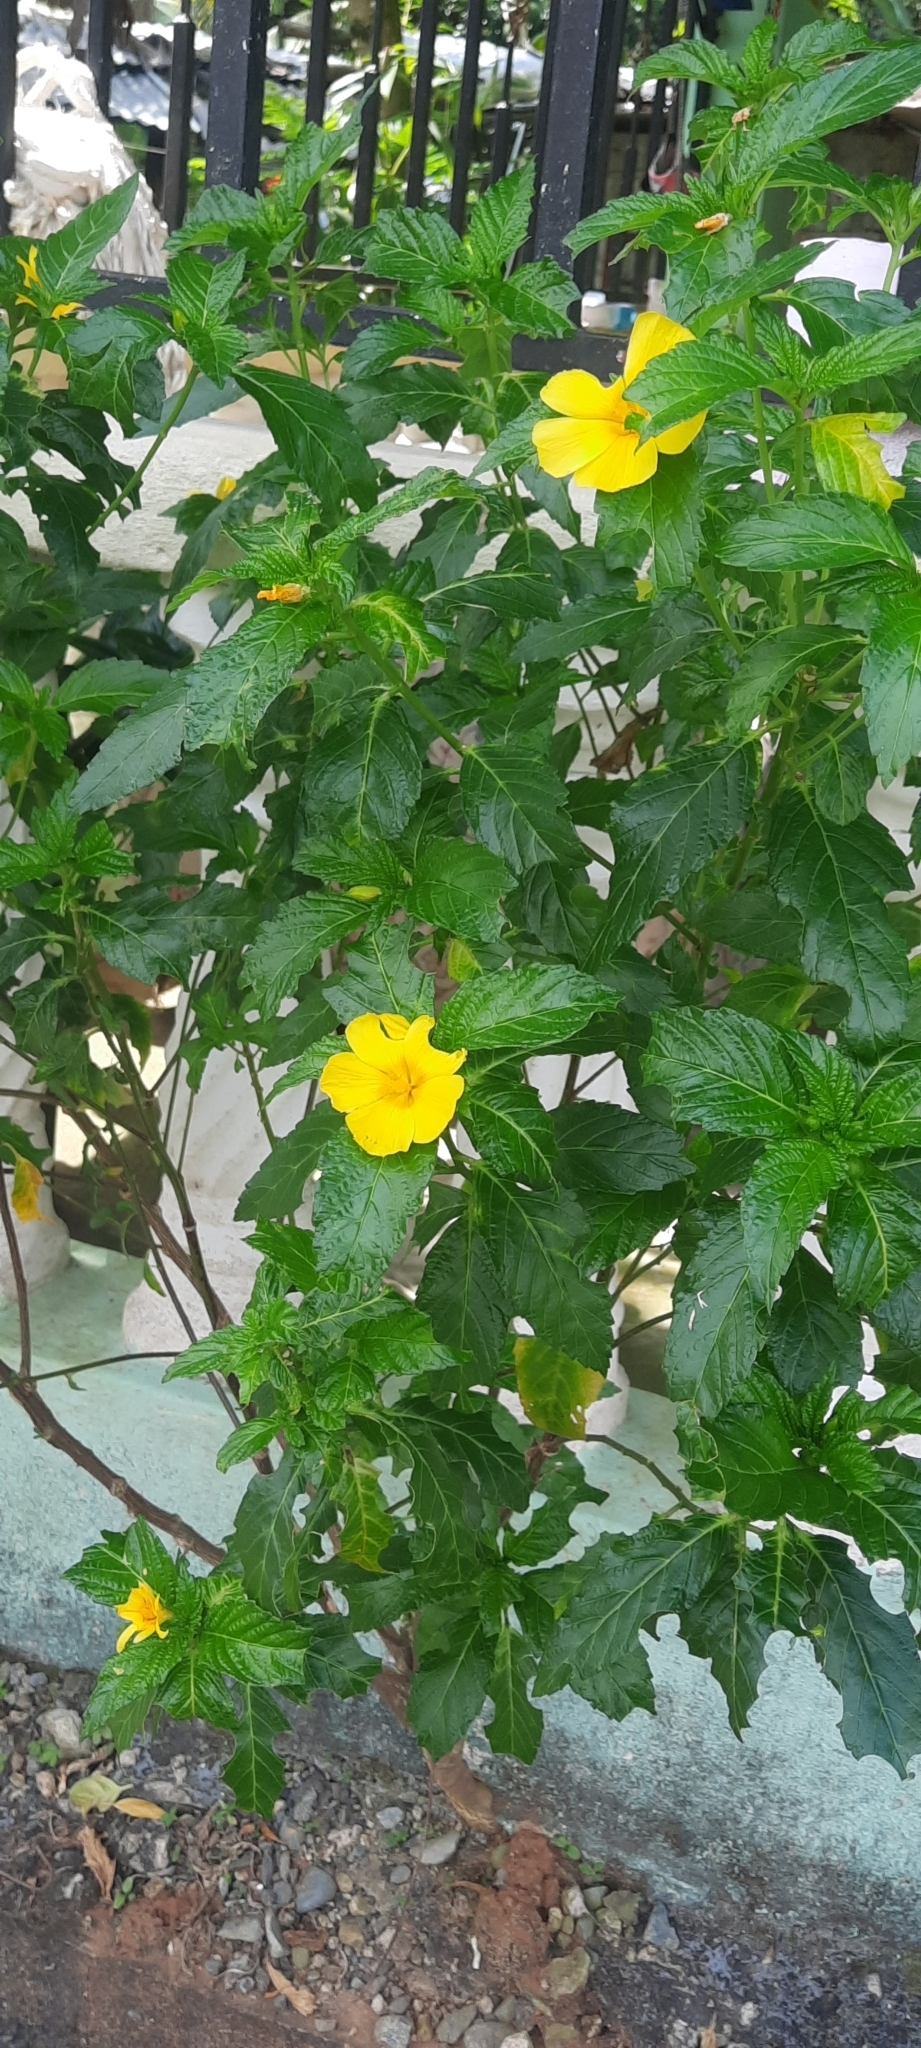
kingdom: Plantae
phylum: Tracheophyta
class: Magnoliopsida
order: Malpighiales
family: Turneraceae
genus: Turnera
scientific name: Turnera ulmifolia
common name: Ramgoat dashalong
